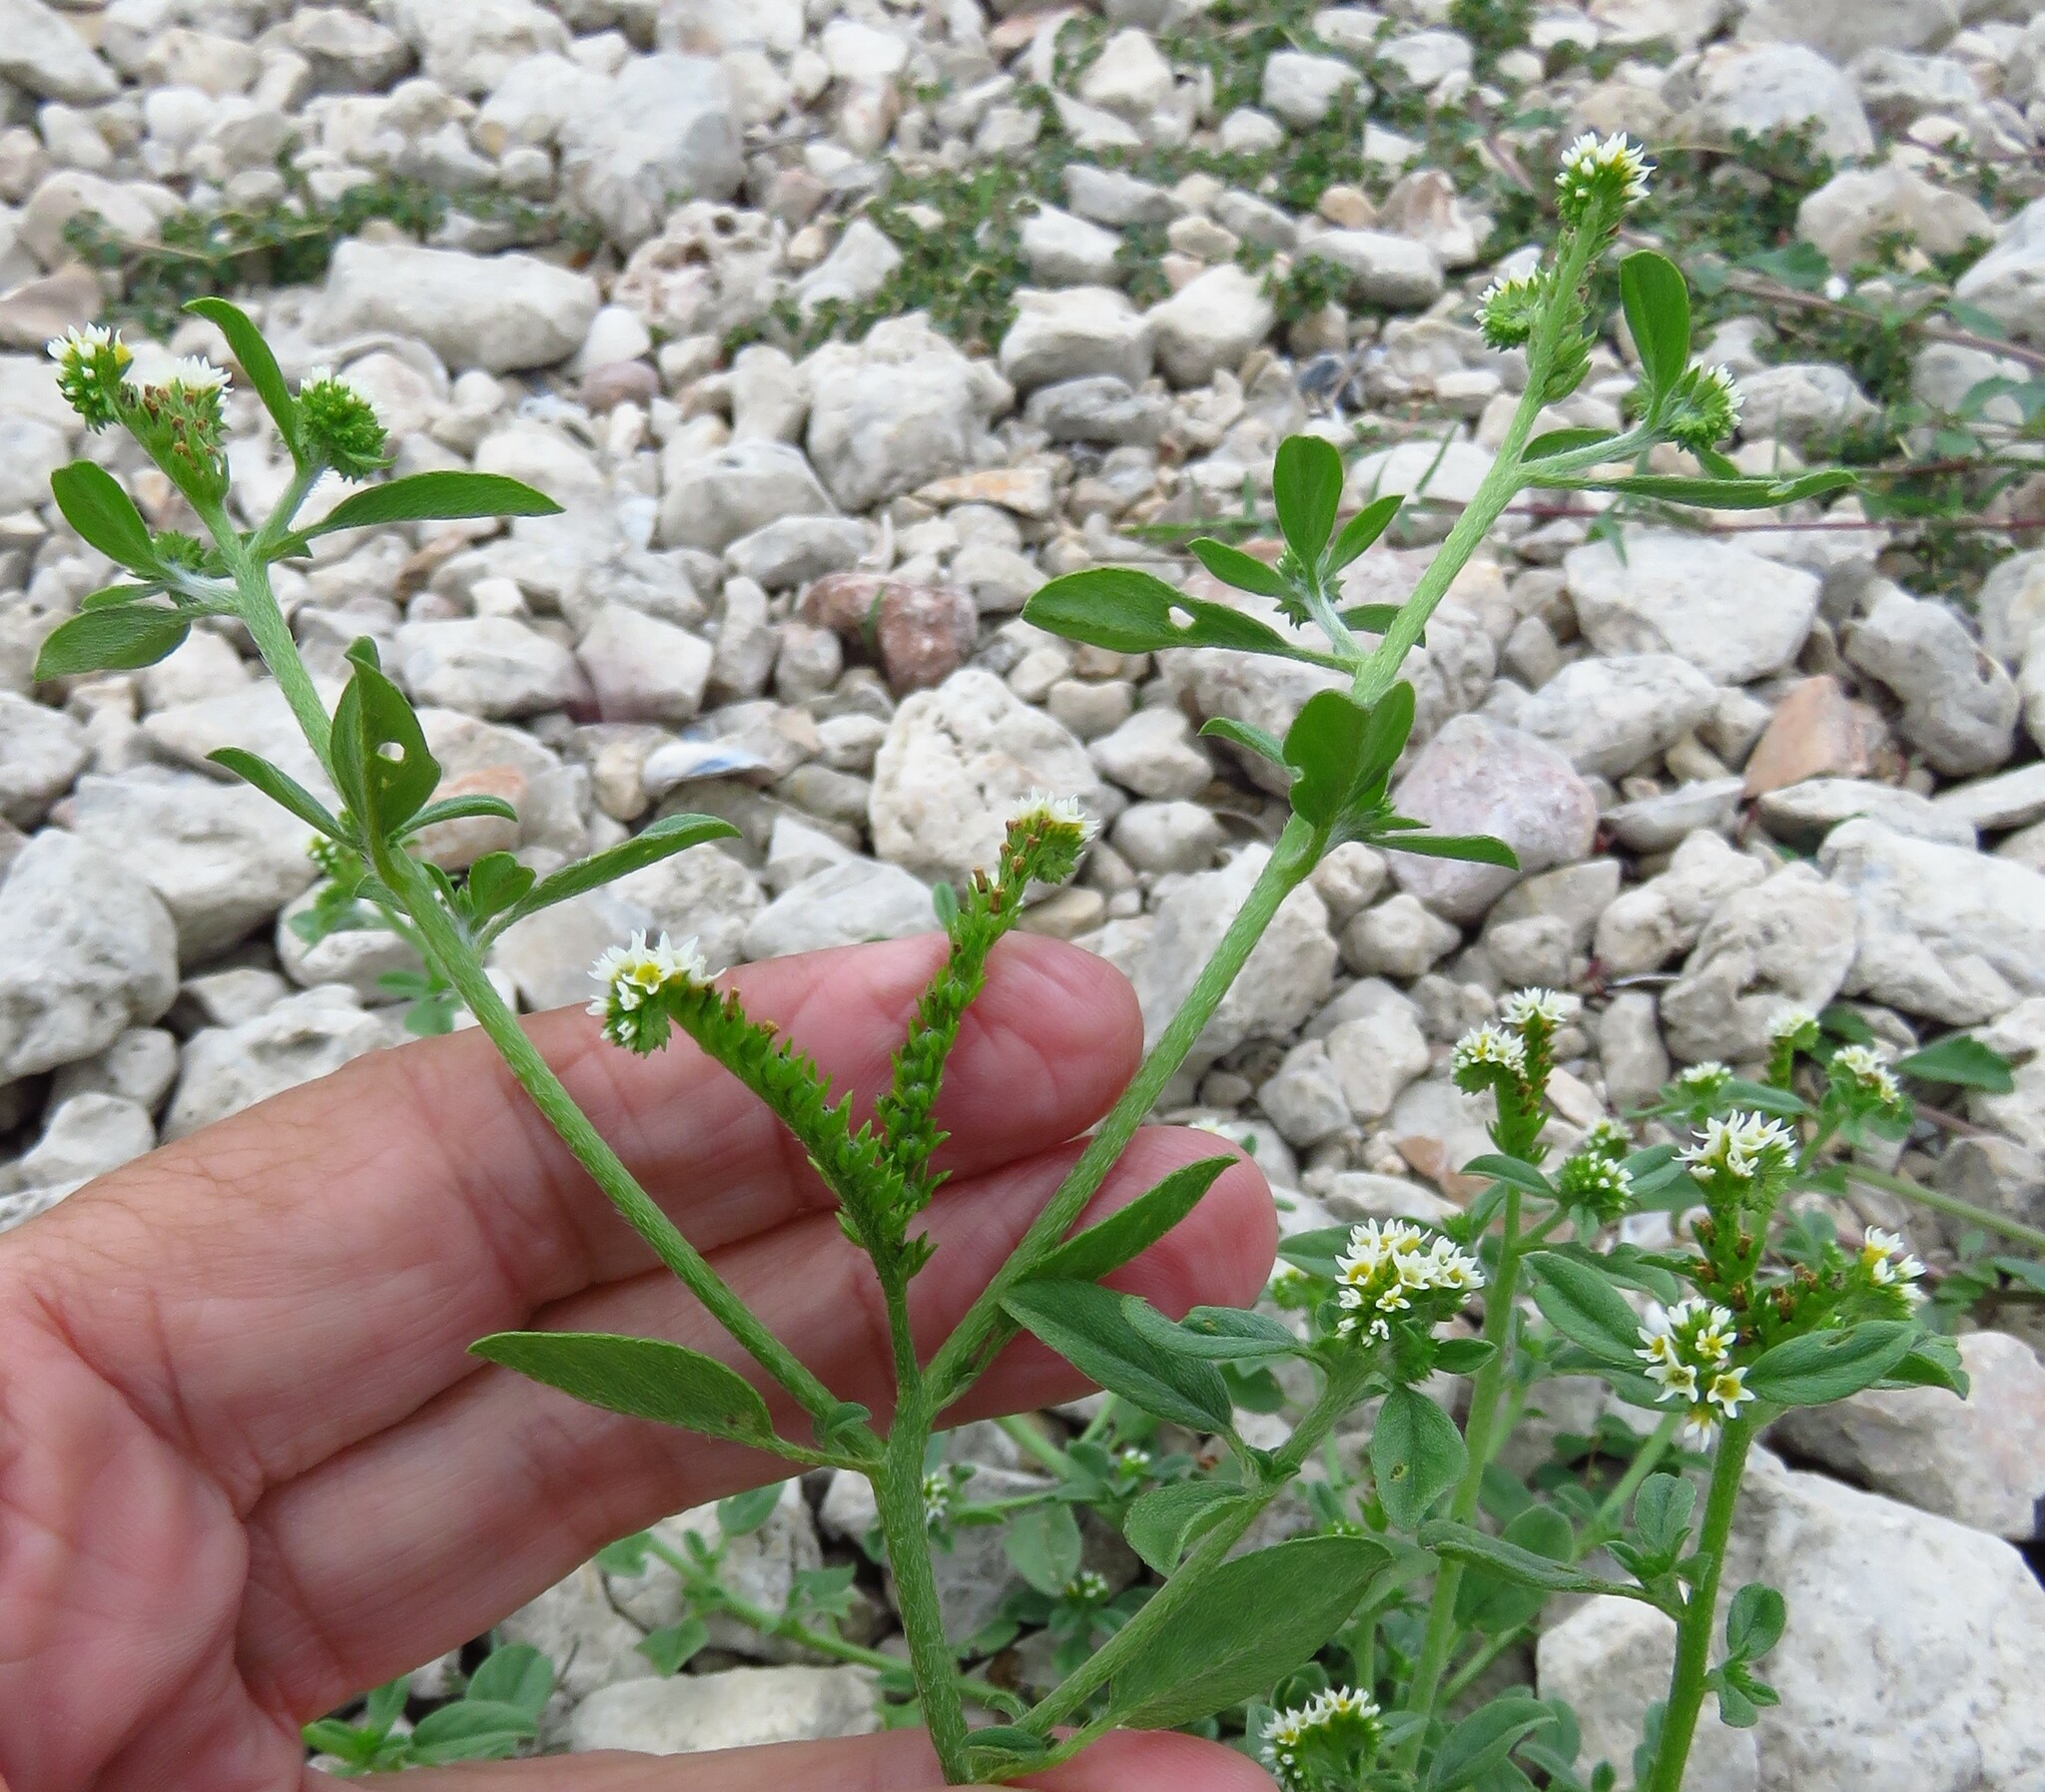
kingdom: Plantae
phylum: Tracheophyta
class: Magnoliopsida
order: Boraginales
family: Heliotropiaceae
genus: Euploca
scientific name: Euploca procumbens
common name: Fourspike heliotrope
